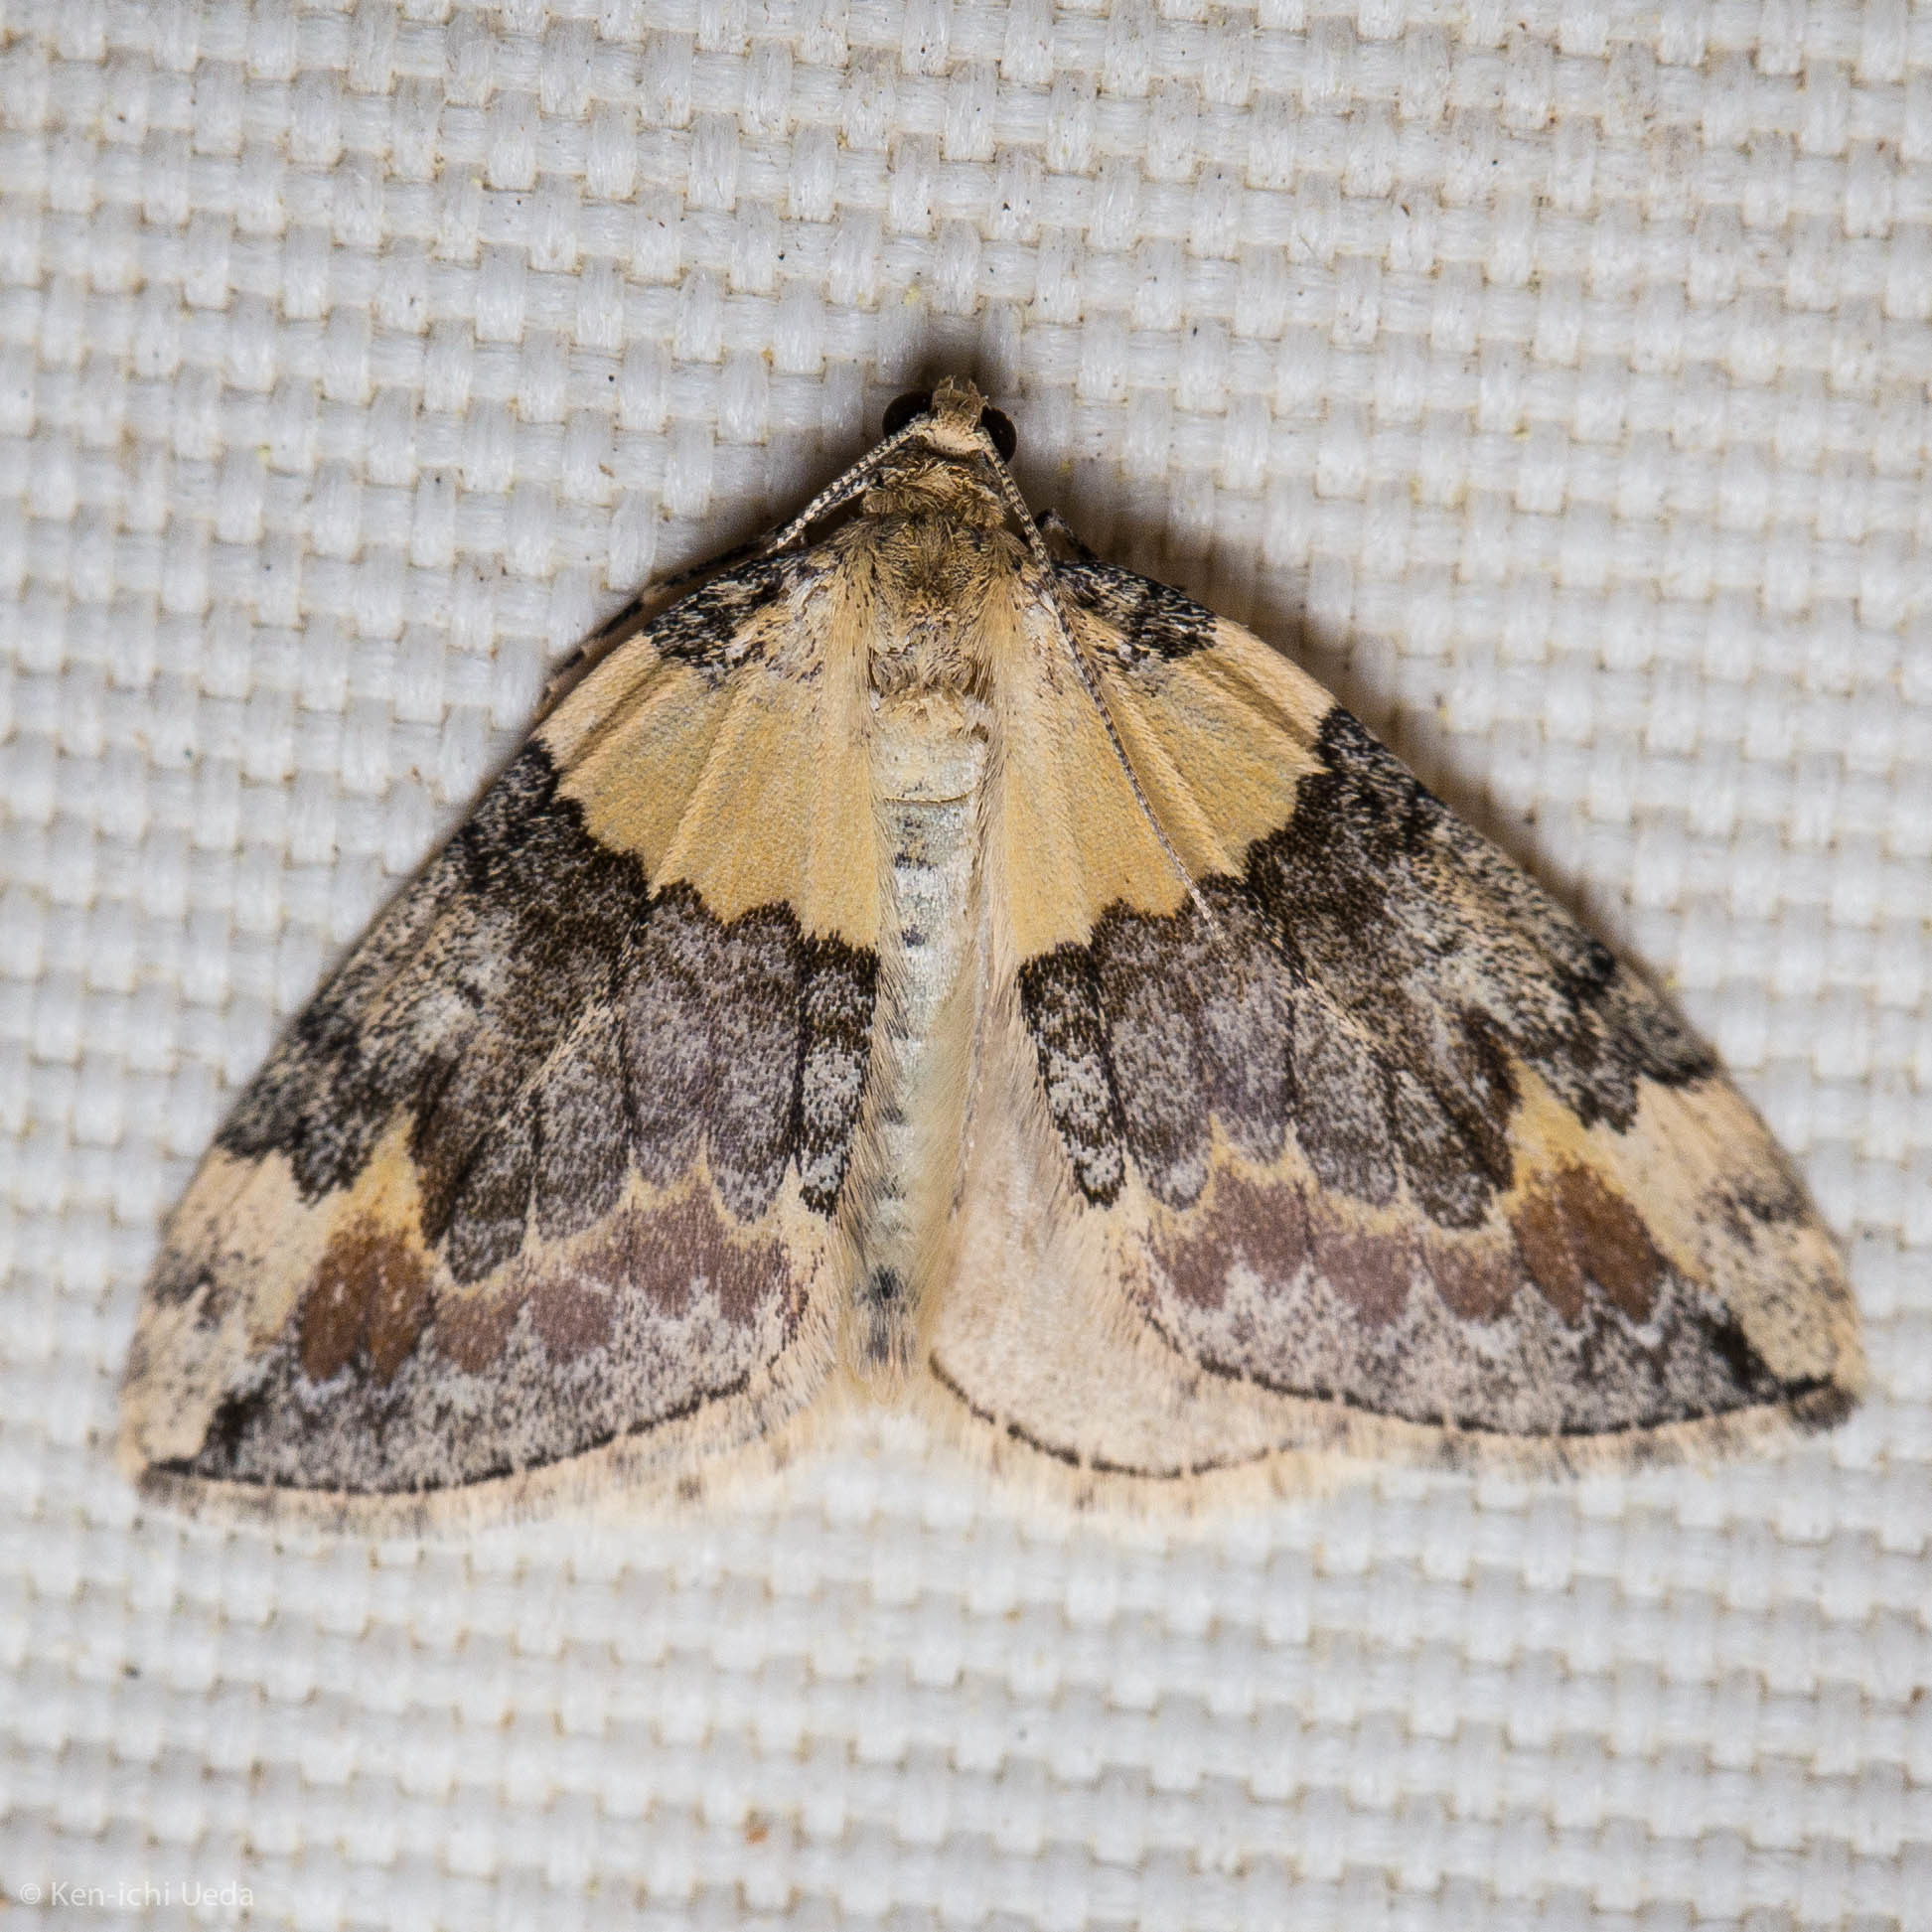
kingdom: Animalia
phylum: Arthropoda
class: Insecta
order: Lepidoptera
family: Geometridae
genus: Dysstroma
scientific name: Dysstroma brunneata
